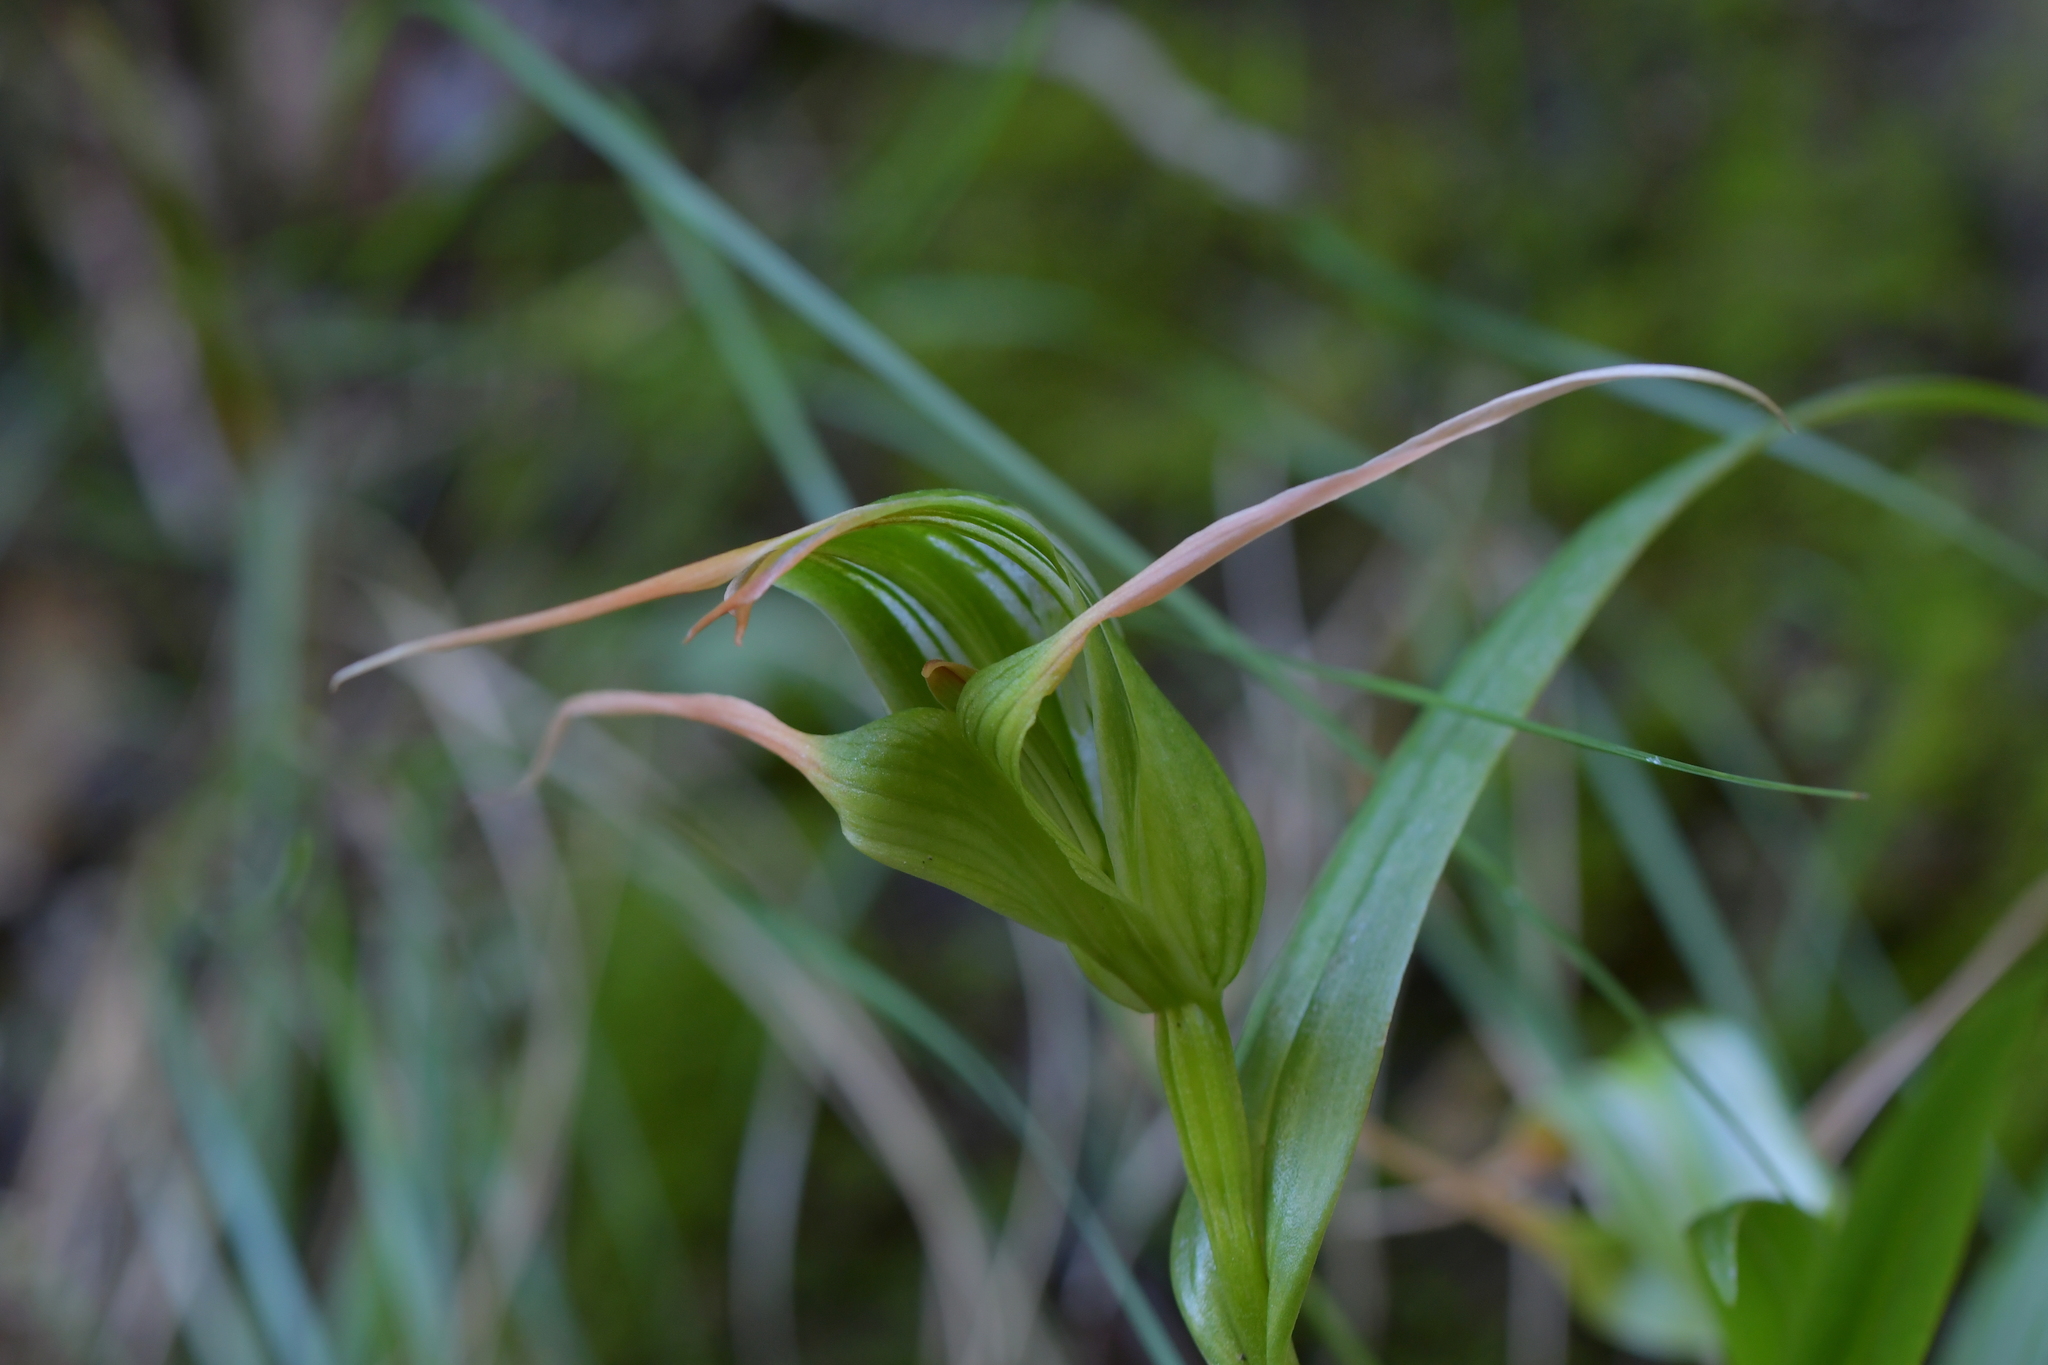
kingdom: Plantae
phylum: Tracheophyta
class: Liliopsida
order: Asparagales
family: Orchidaceae
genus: Pterostylis
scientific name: Pterostylis banksii
